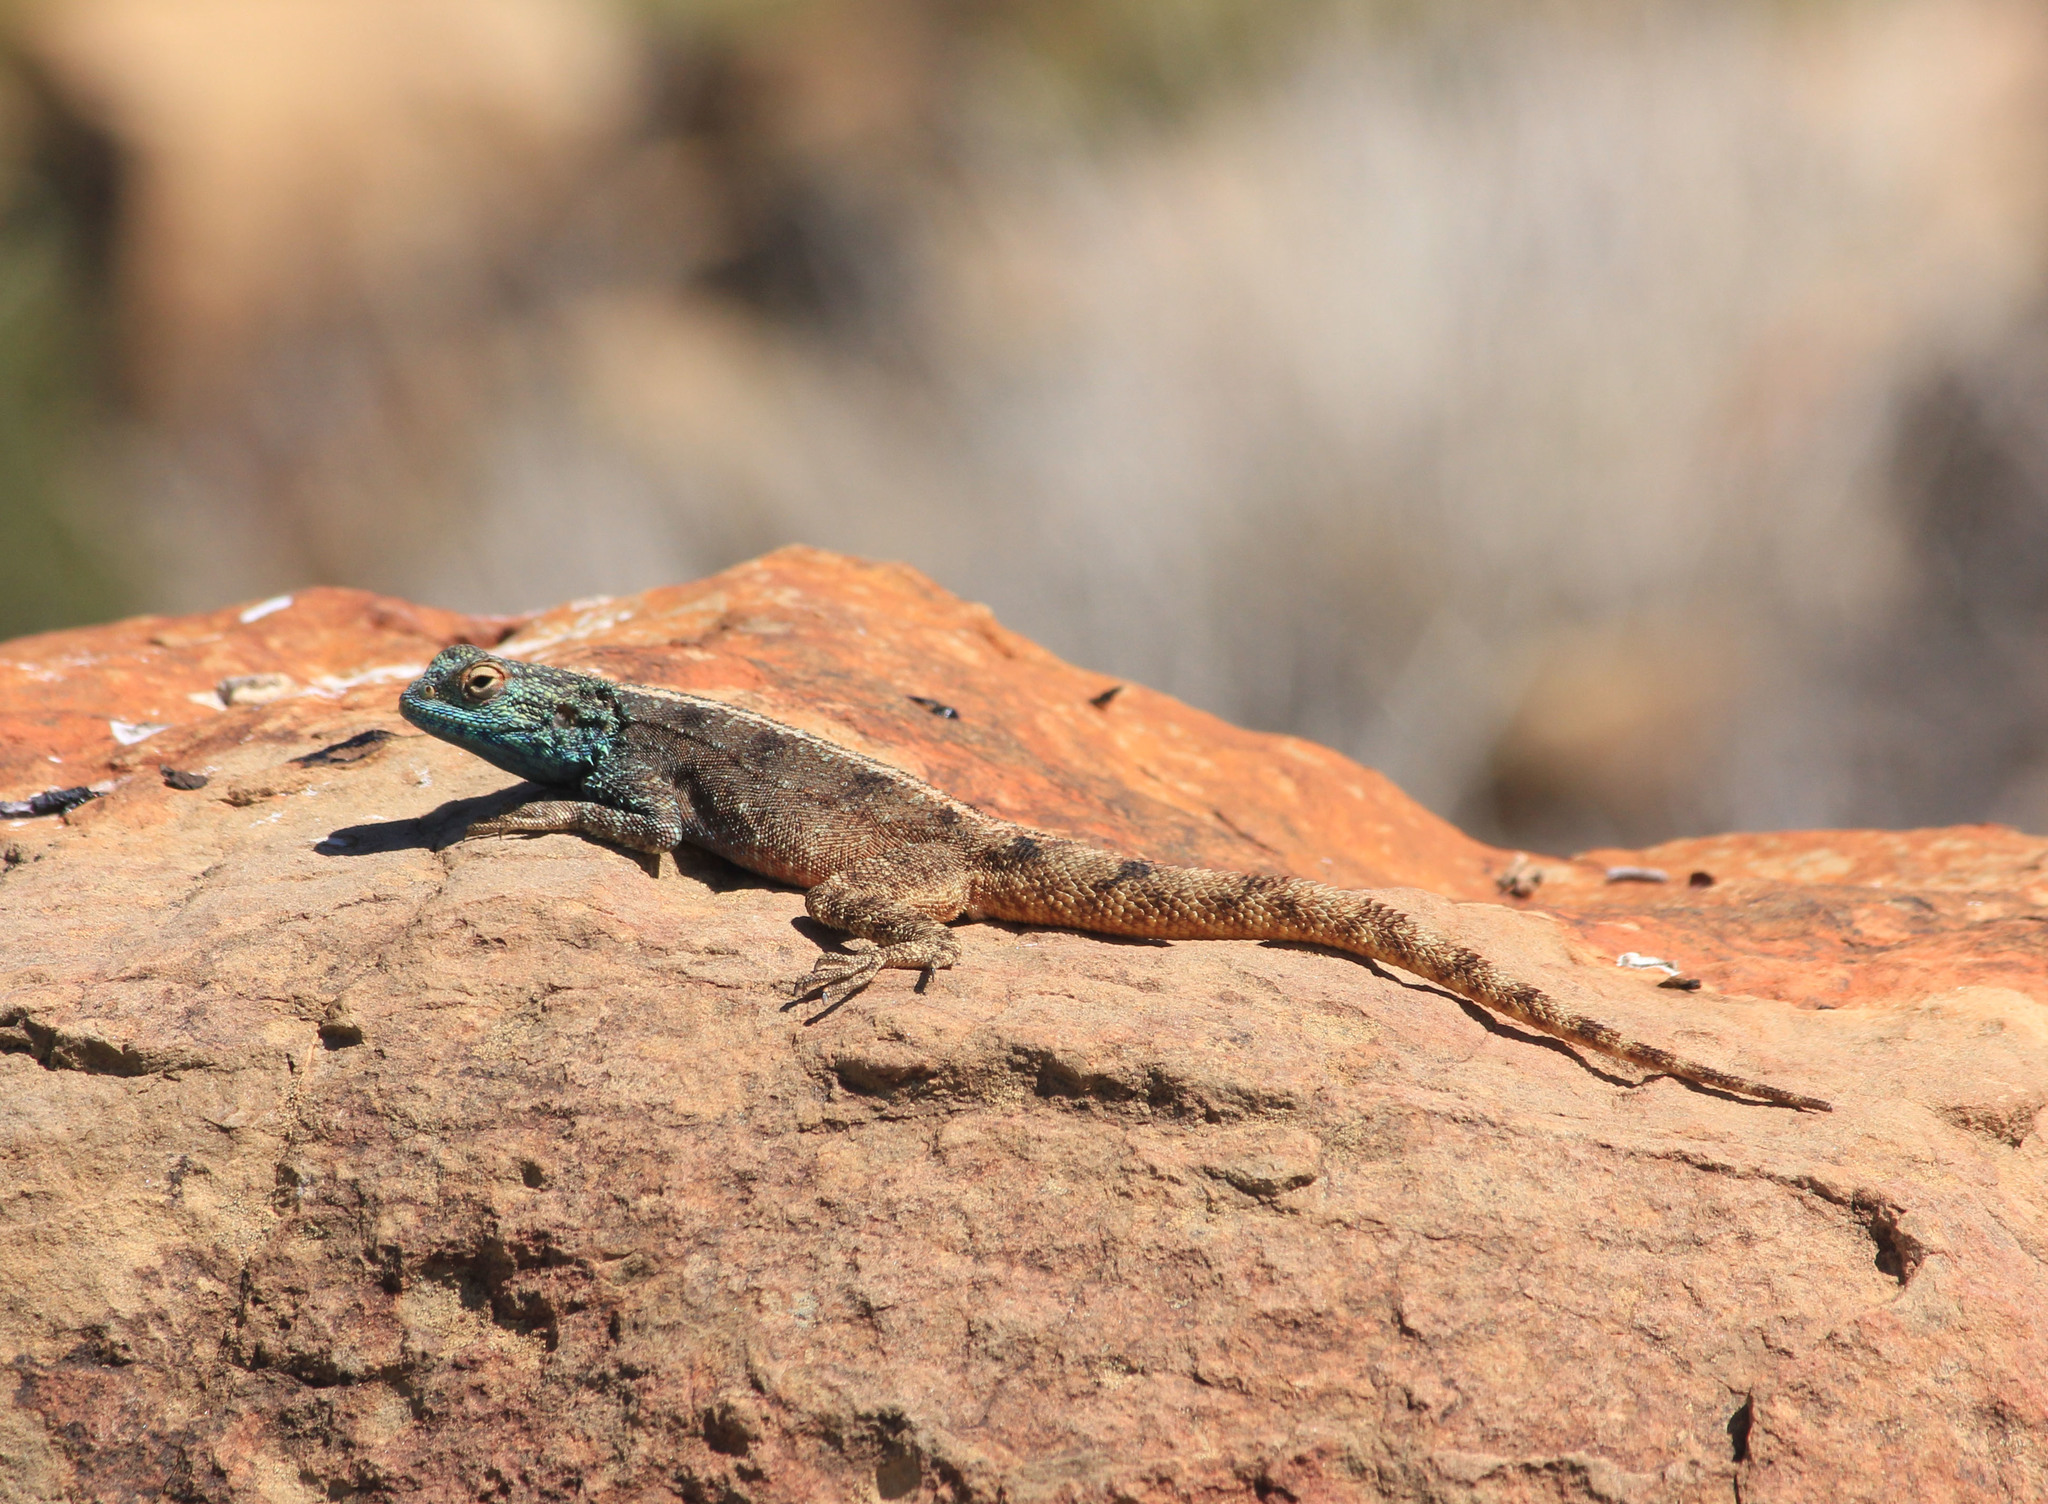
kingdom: Animalia
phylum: Chordata
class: Squamata
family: Agamidae
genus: Agama
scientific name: Agama atra
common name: Southern african rock agama
